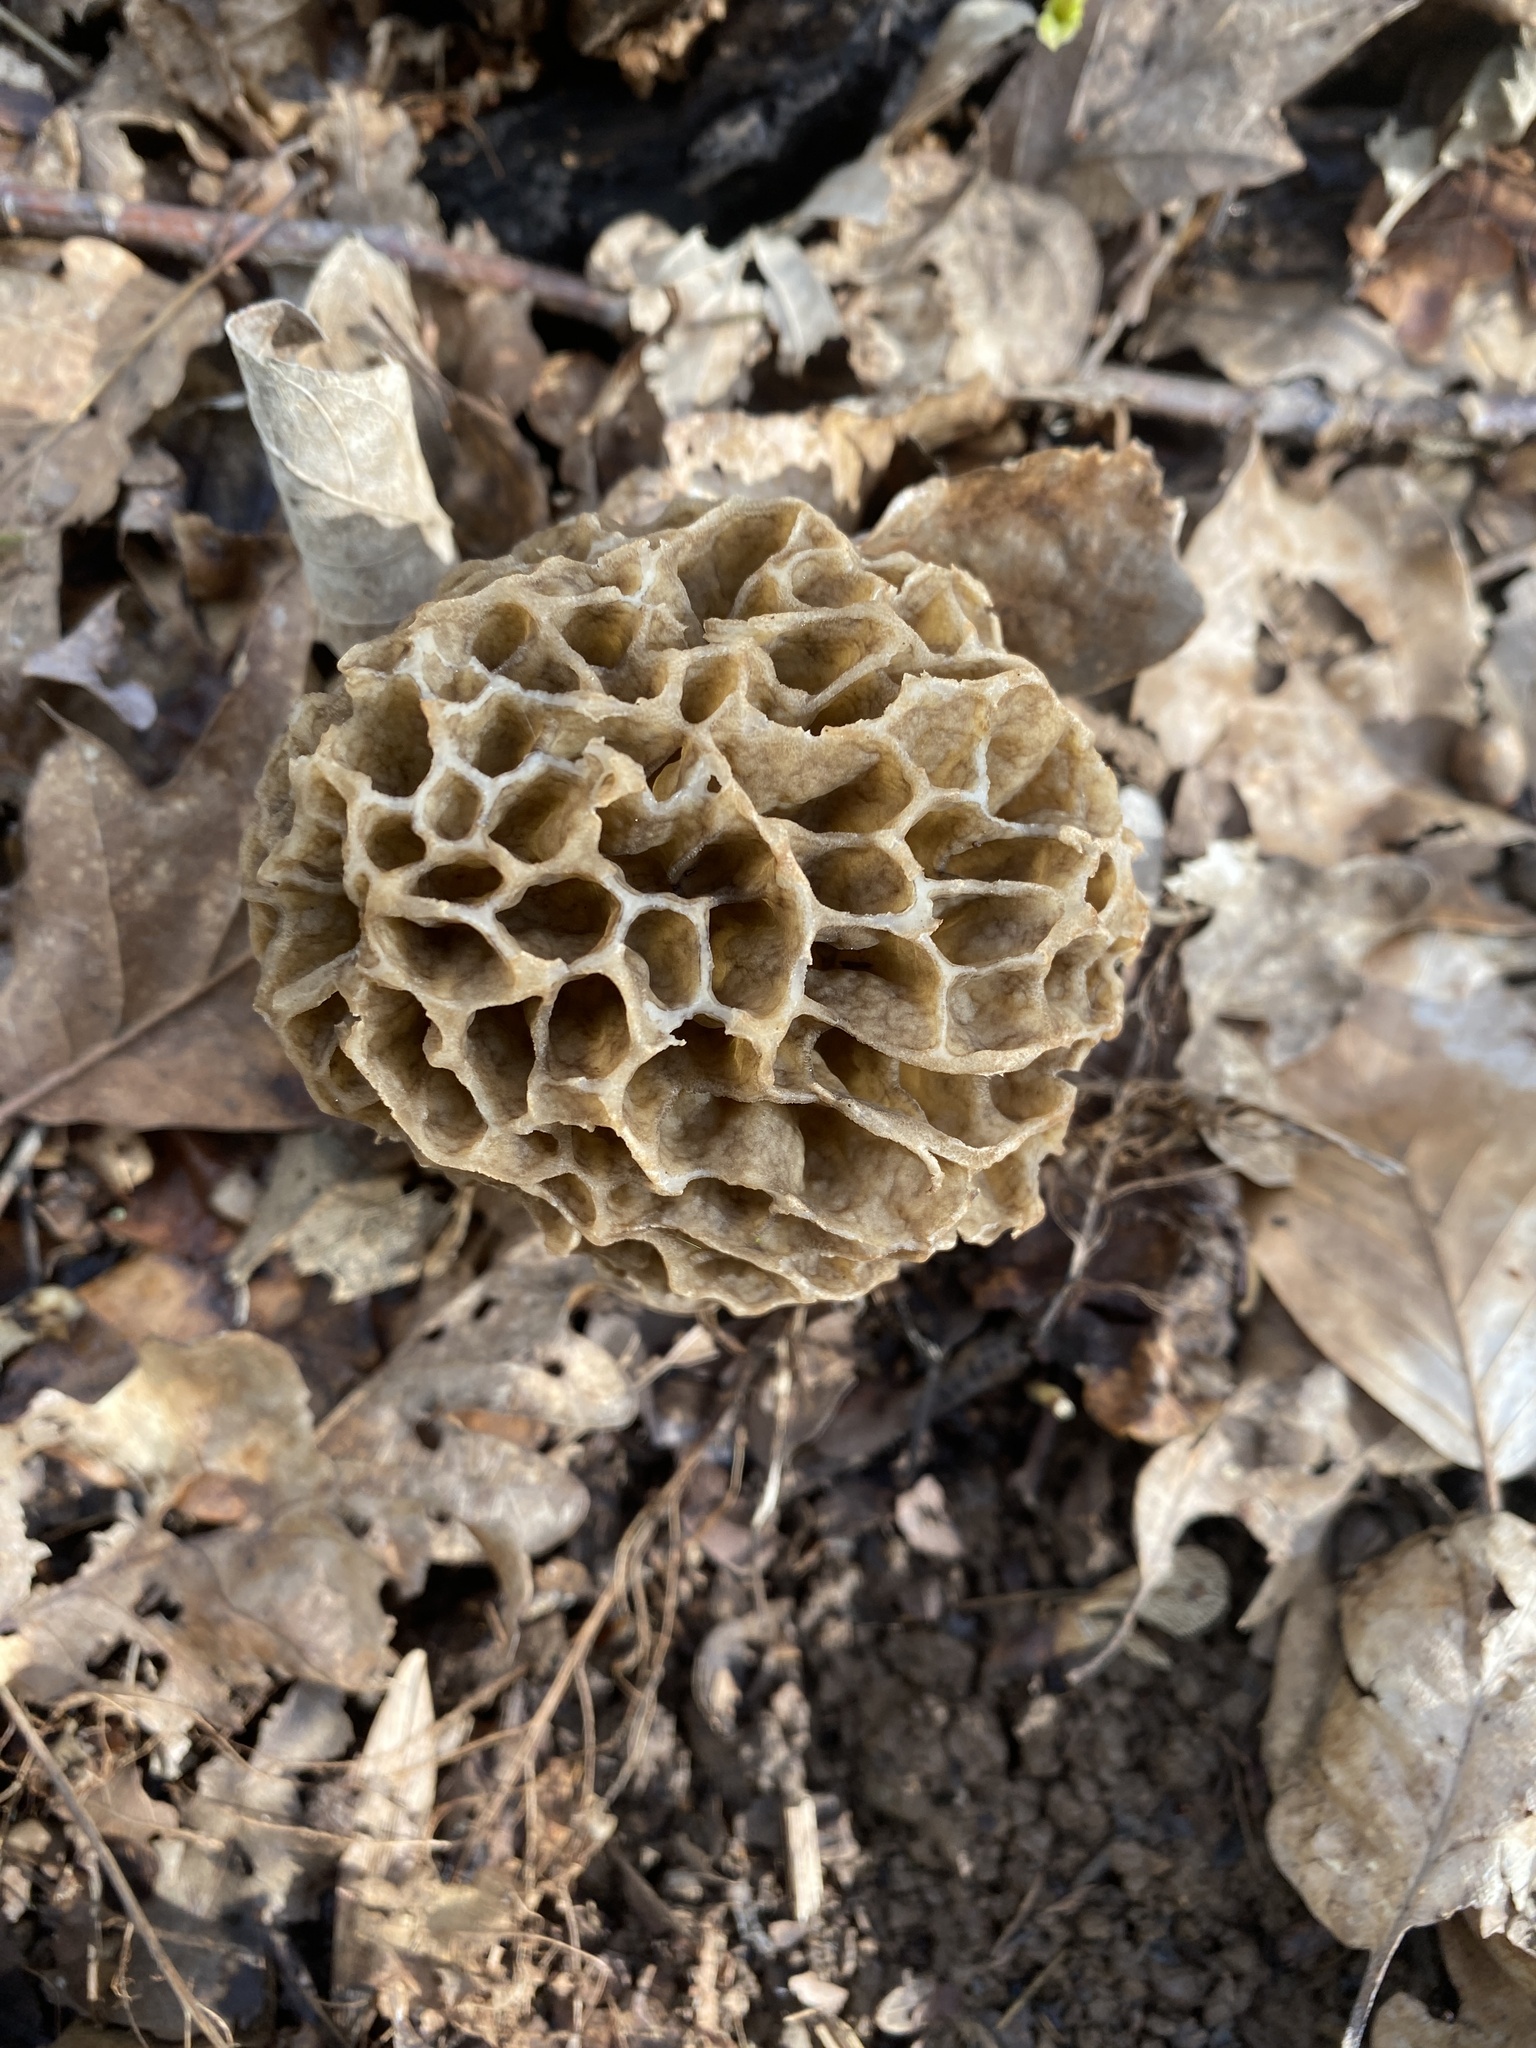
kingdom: Fungi
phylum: Ascomycota
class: Pezizomycetes
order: Pezizales
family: Morchellaceae
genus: Morchella
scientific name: Morchella esculenta
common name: Morel
